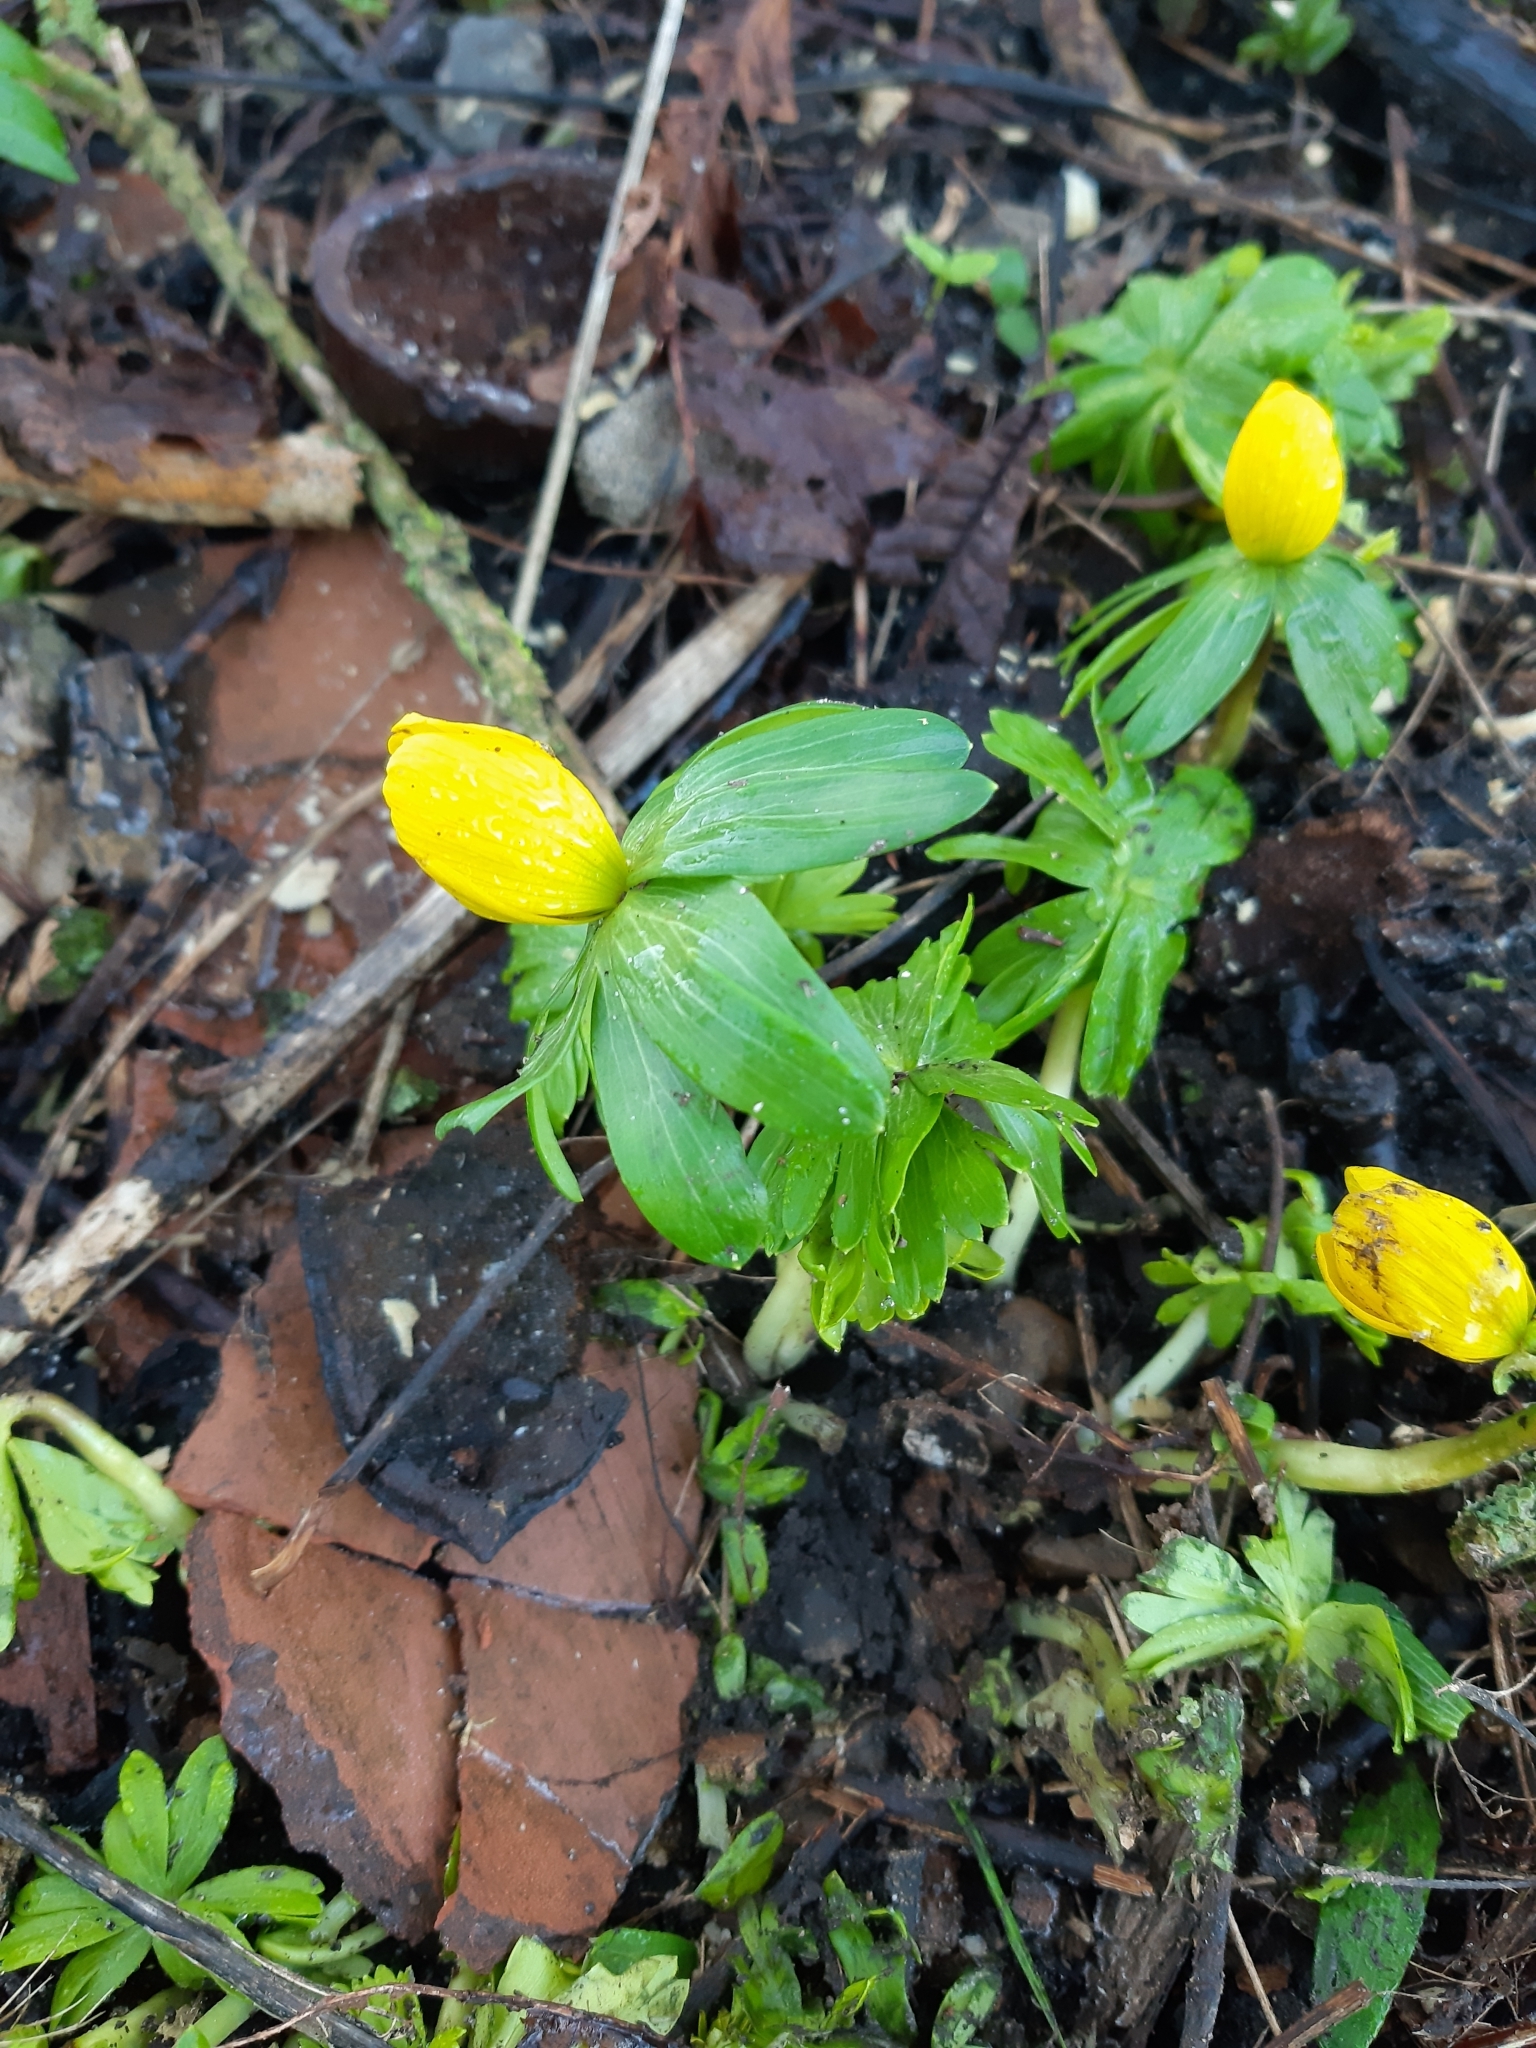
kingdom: Plantae
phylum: Tracheophyta
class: Magnoliopsida
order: Ranunculales
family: Ranunculaceae
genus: Eranthis
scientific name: Eranthis hyemalis
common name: Winter aconite
